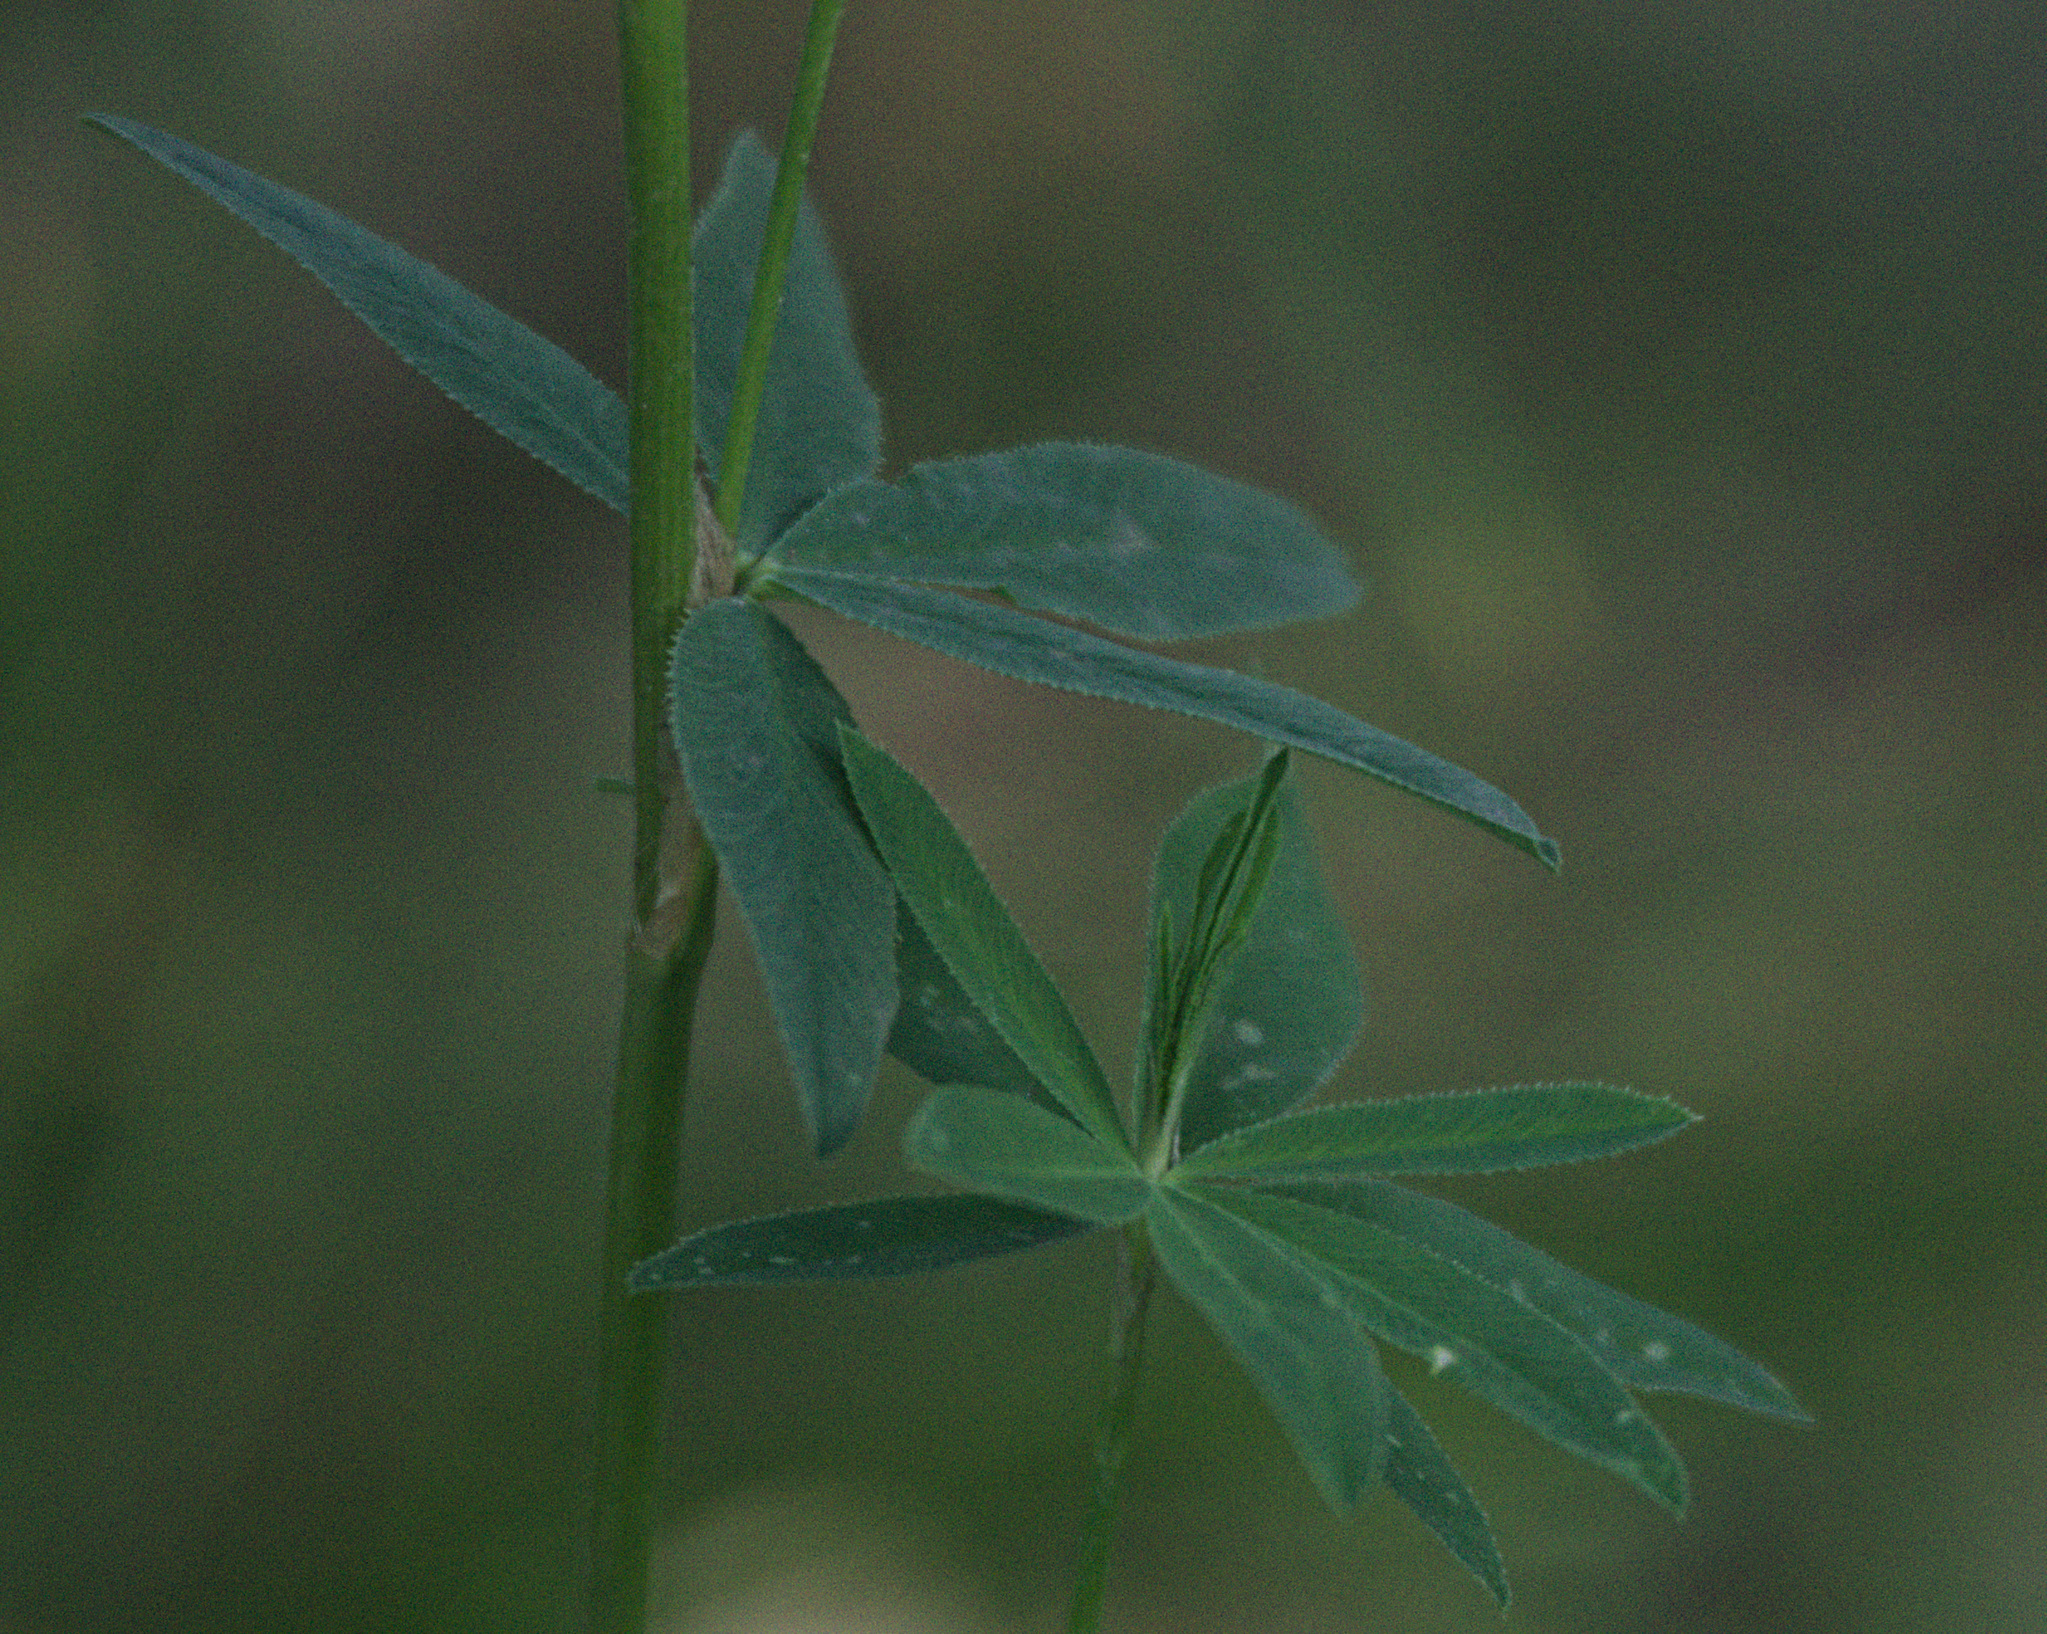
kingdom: Plantae
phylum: Tracheophyta
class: Magnoliopsida
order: Fabales
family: Fabaceae
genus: Trifolium
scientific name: Trifolium lupinaster
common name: Lupine clover
